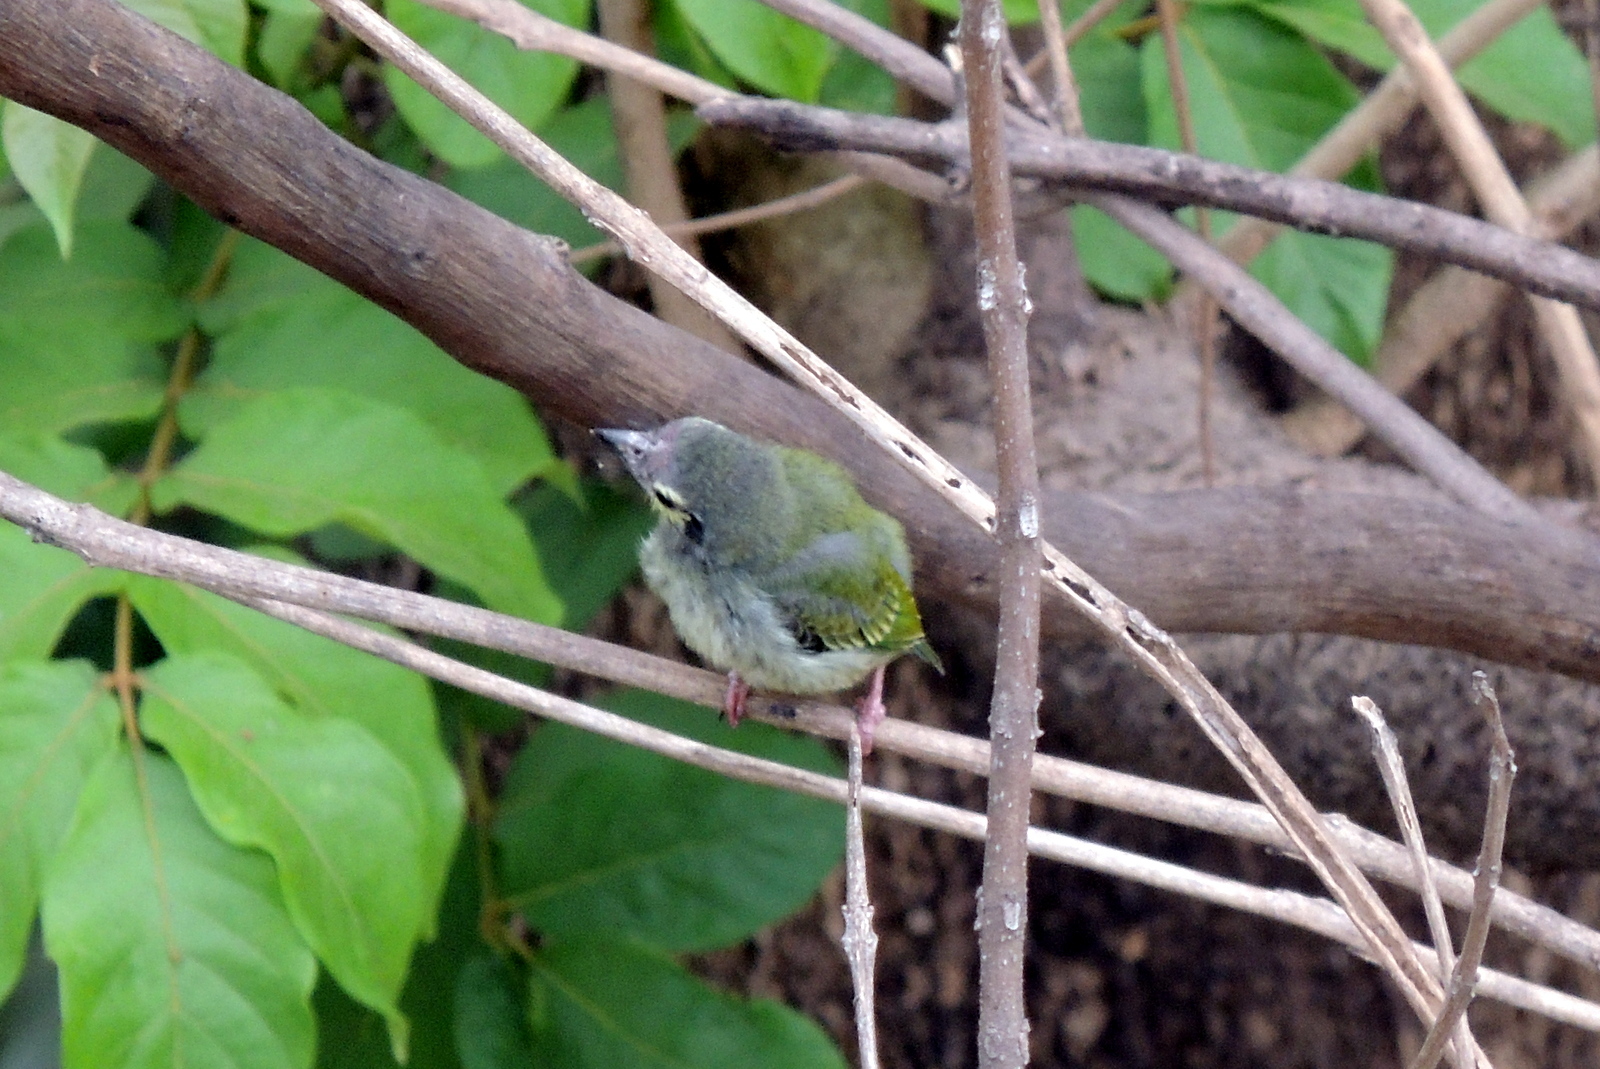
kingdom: Animalia
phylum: Chordata
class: Aves
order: Piciformes
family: Megalaimidae
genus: Psilopogon
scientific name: Psilopogon haemacephalus
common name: Coppersmith barbet
